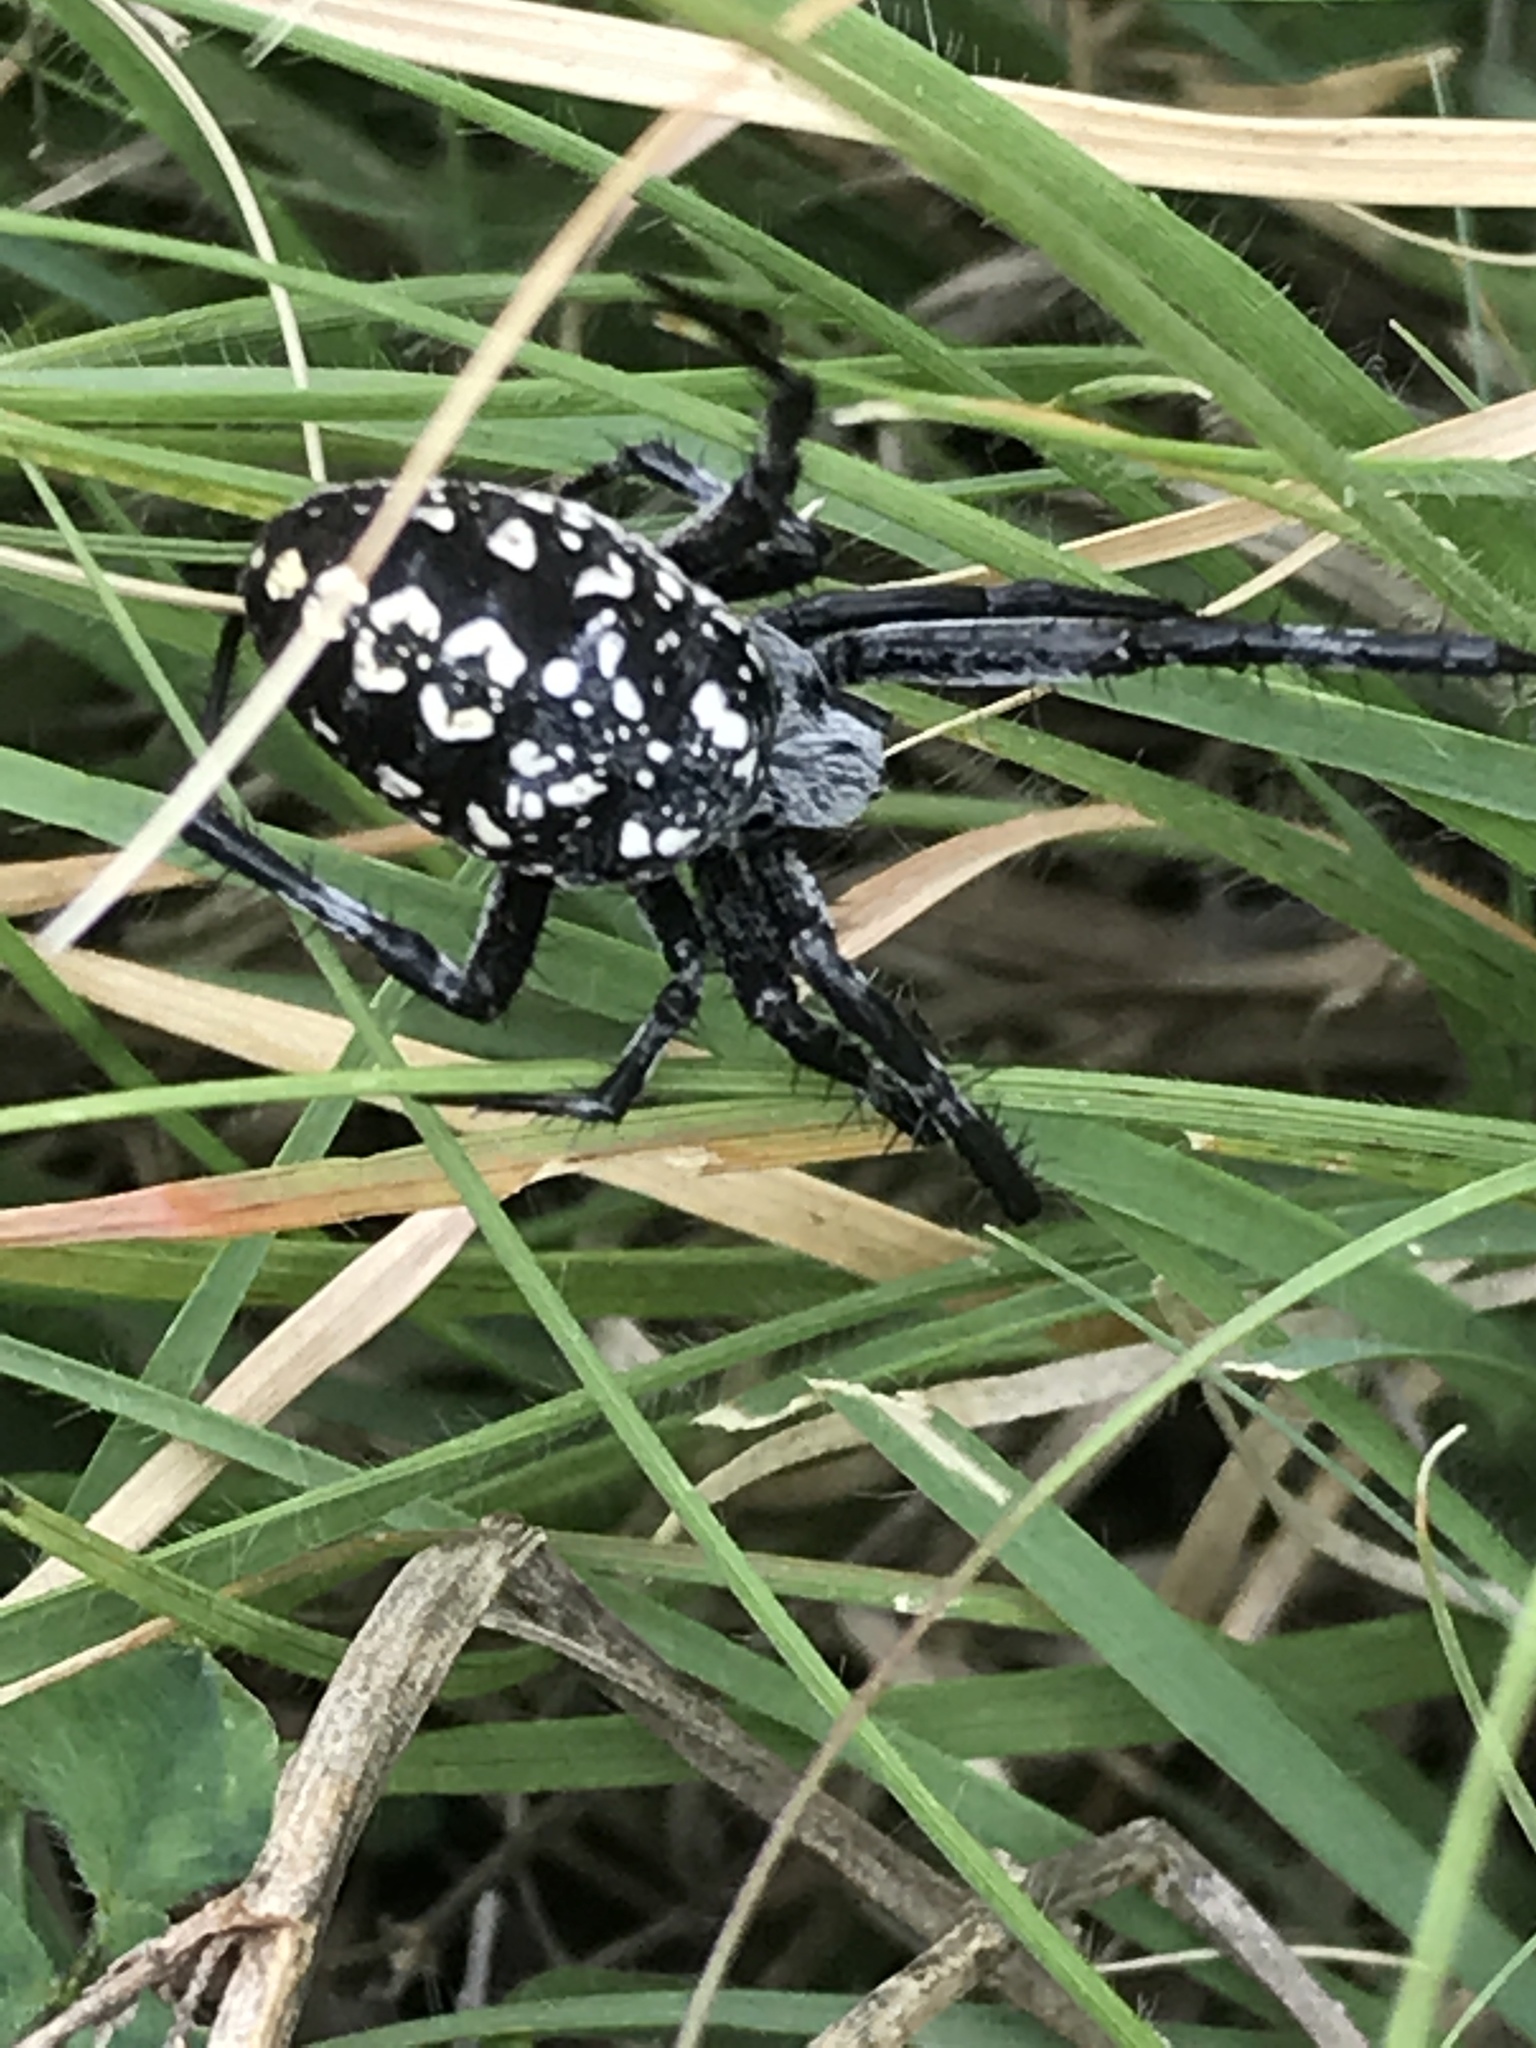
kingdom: Animalia
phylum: Arthropoda
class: Arachnida
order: Araneae
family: Araneidae
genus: Neoscona
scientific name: Neoscona oaxacensis
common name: Orb weavers
